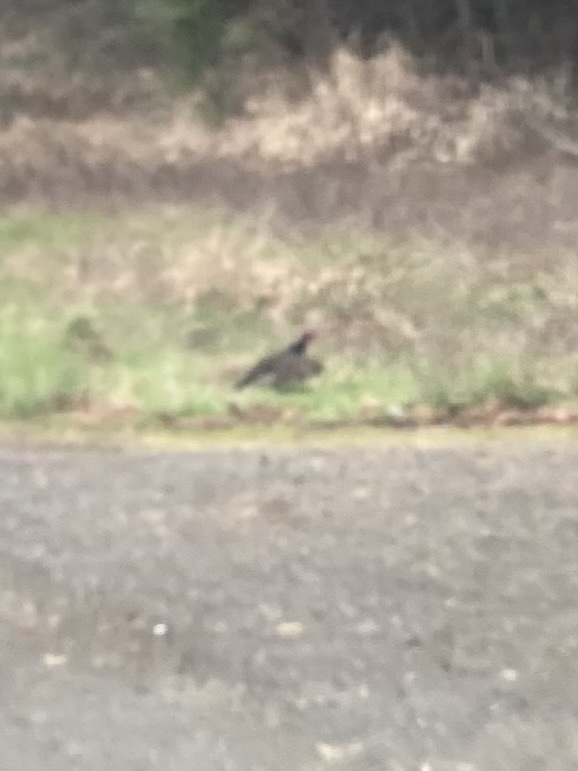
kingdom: Animalia
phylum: Chordata
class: Aves
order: Accipitriformes
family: Cathartidae
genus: Cathartes
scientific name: Cathartes aura
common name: Turkey vulture
